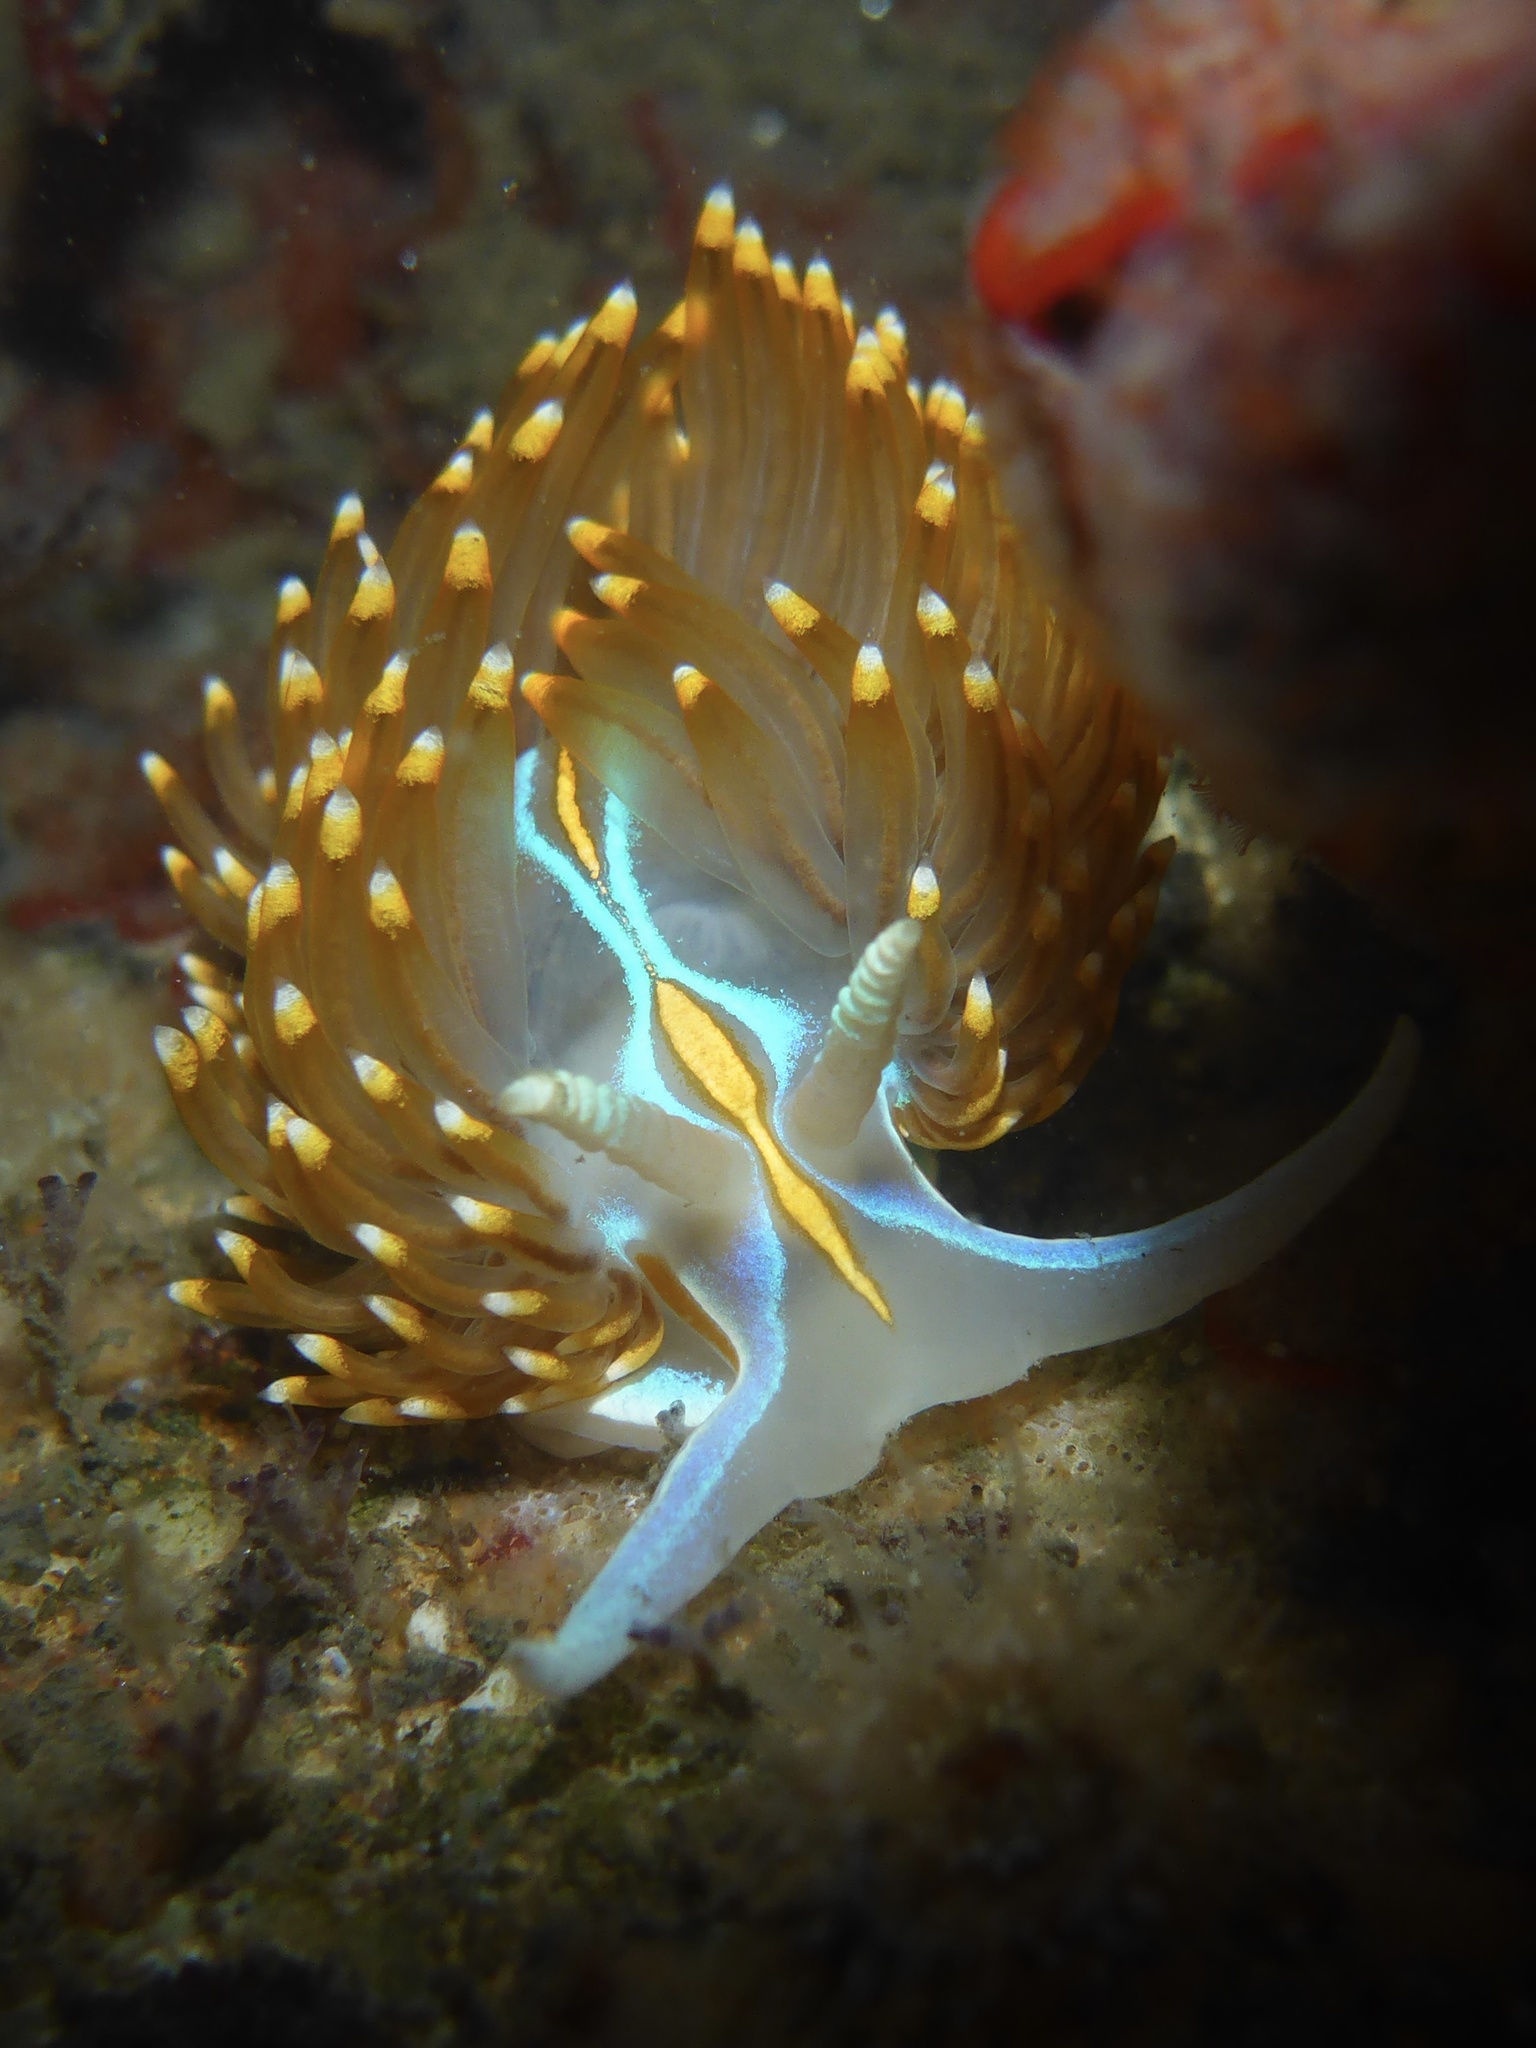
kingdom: Animalia
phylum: Mollusca
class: Gastropoda
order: Nudibranchia
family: Myrrhinidae
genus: Hermissenda
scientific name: Hermissenda opalescens
